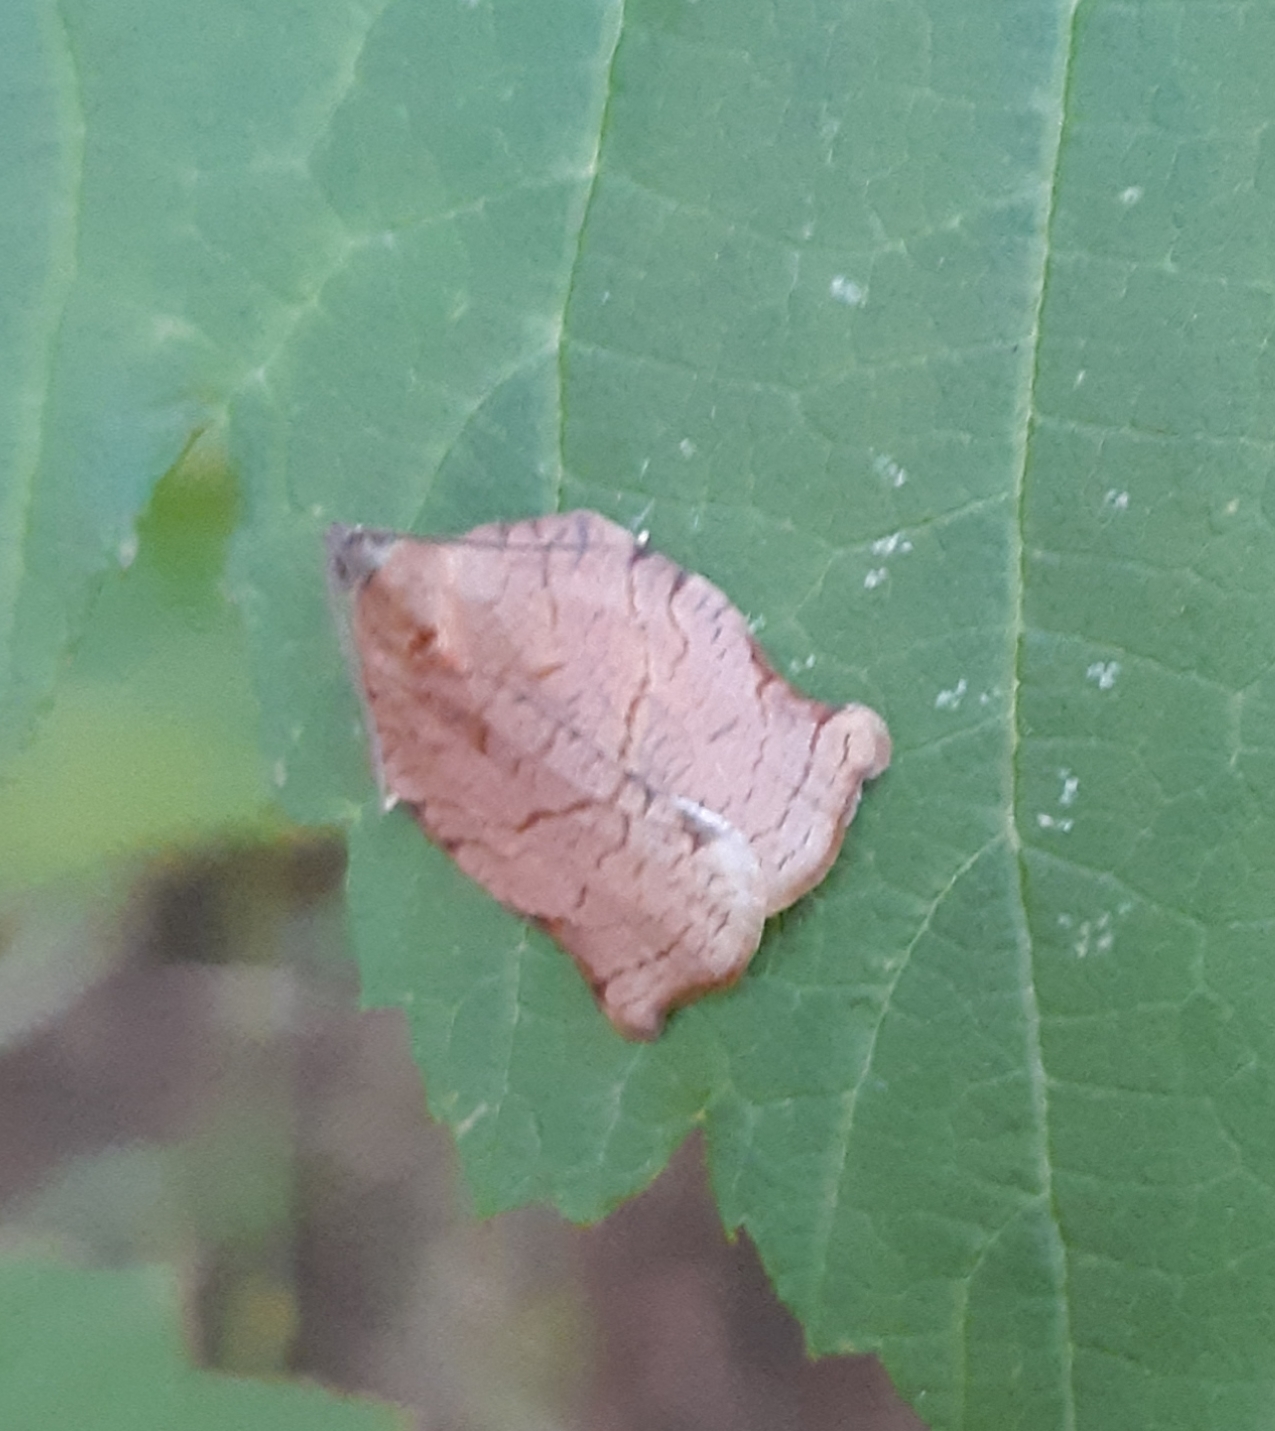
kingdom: Animalia
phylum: Arthropoda
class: Insecta
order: Lepidoptera
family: Tortricidae
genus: Archips
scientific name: Archips purpurana
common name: Omnivorous leafroller
